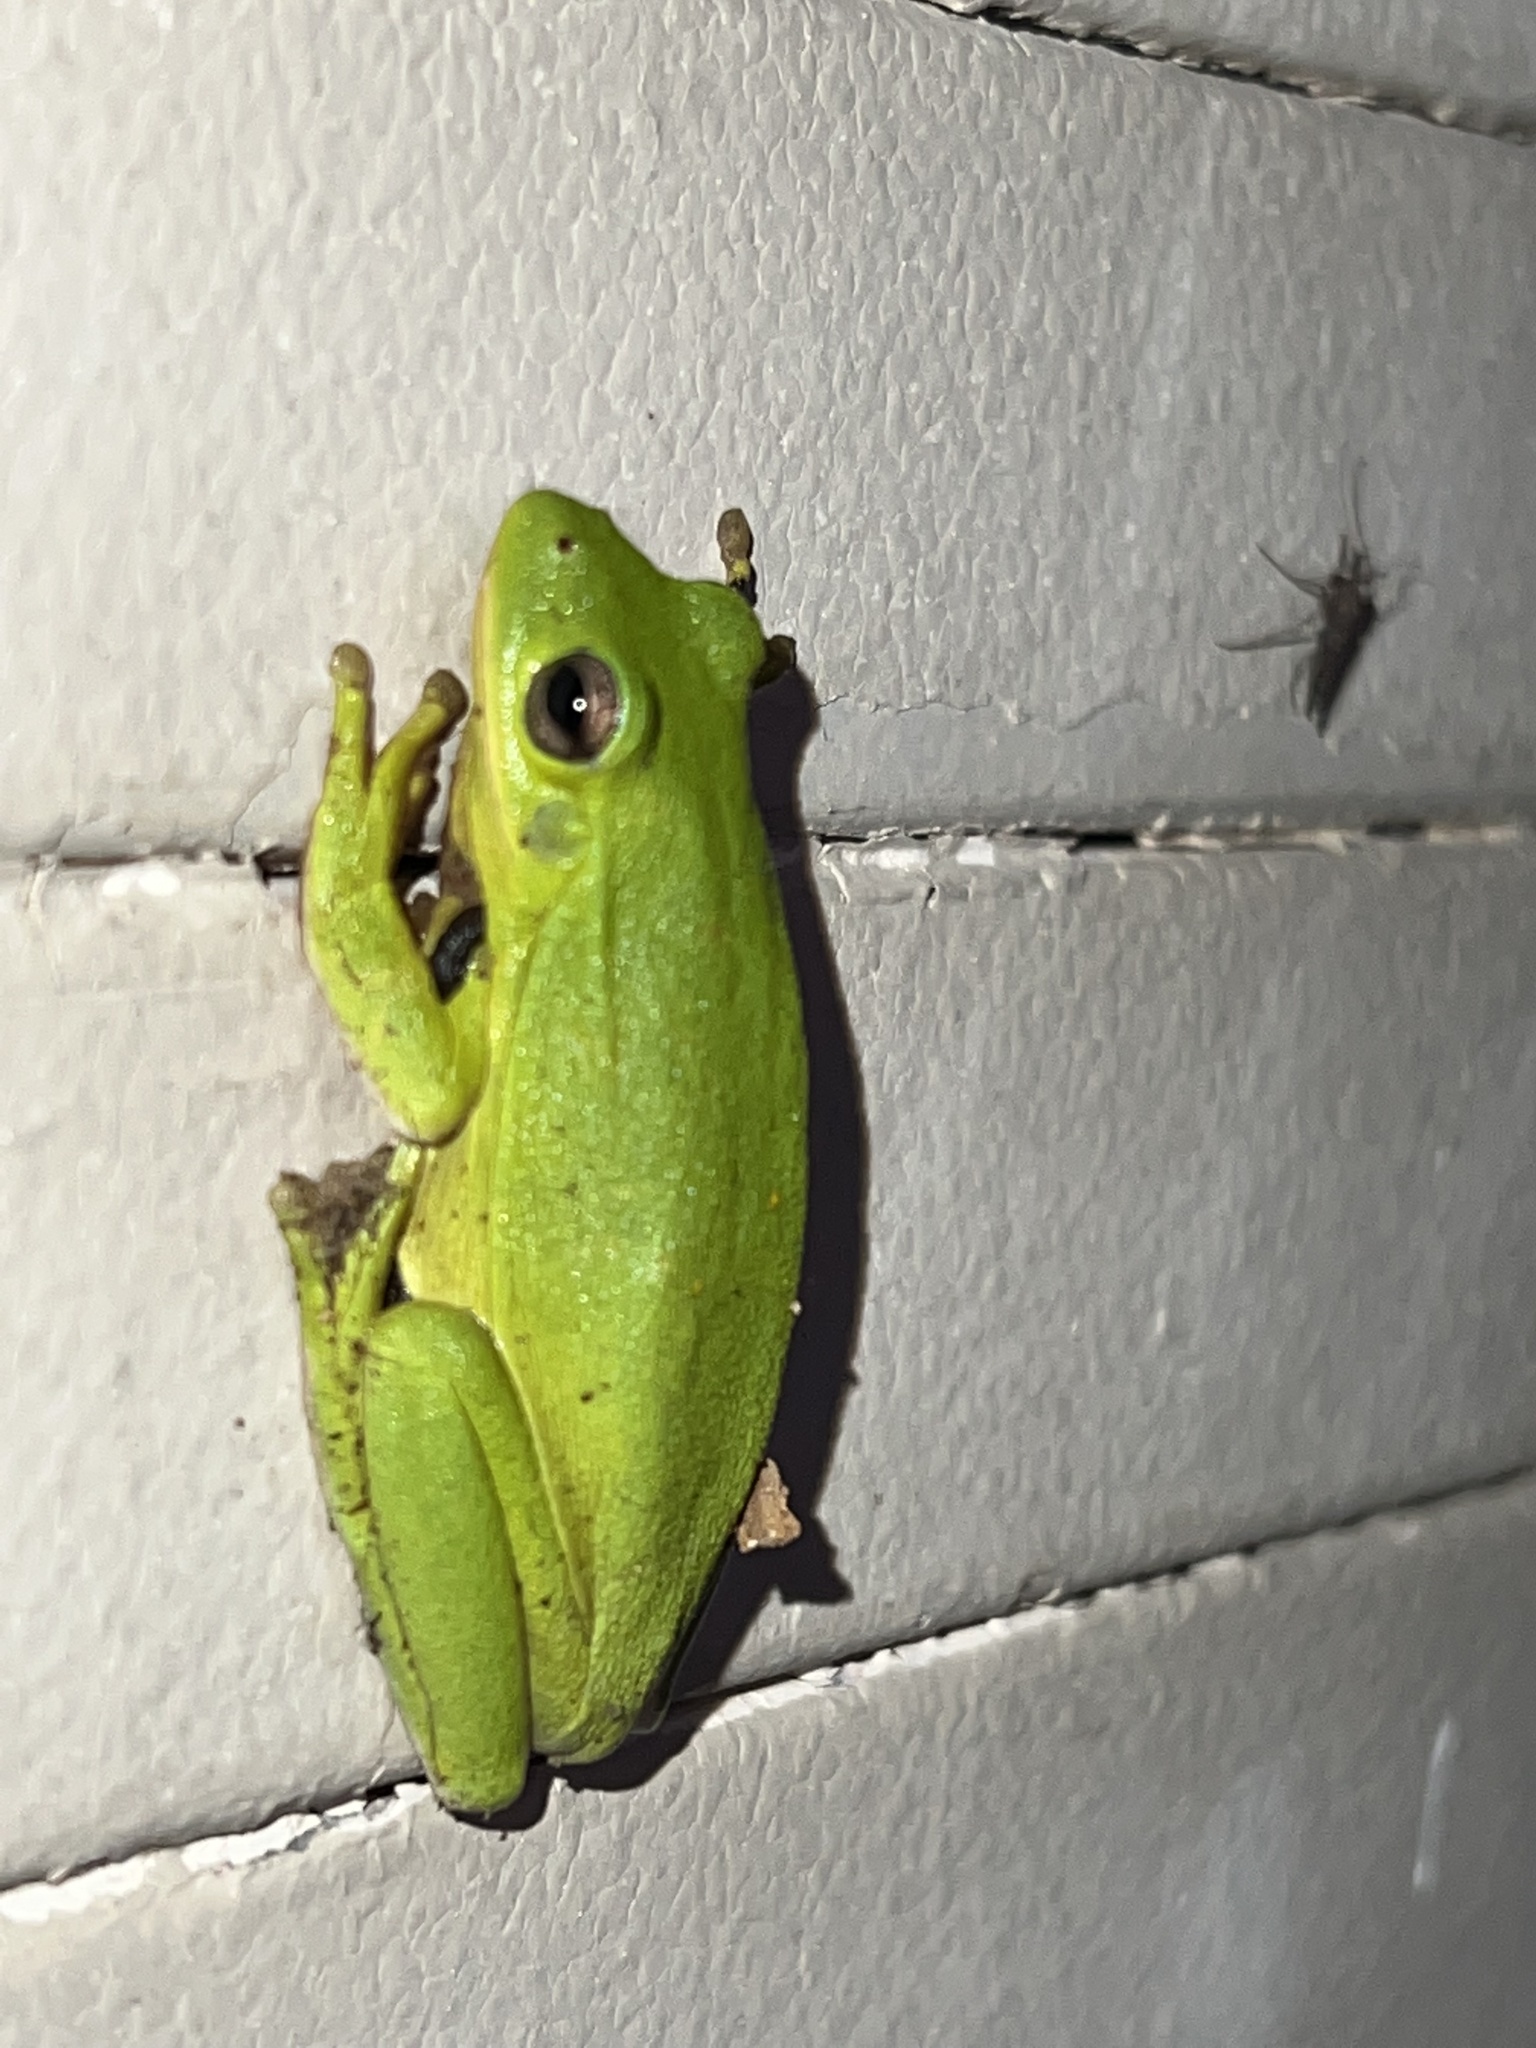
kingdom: Animalia
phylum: Chordata
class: Amphibia
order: Anura
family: Hylidae
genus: Dryophytes
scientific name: Dryophytes cinereus
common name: Green treefrog
